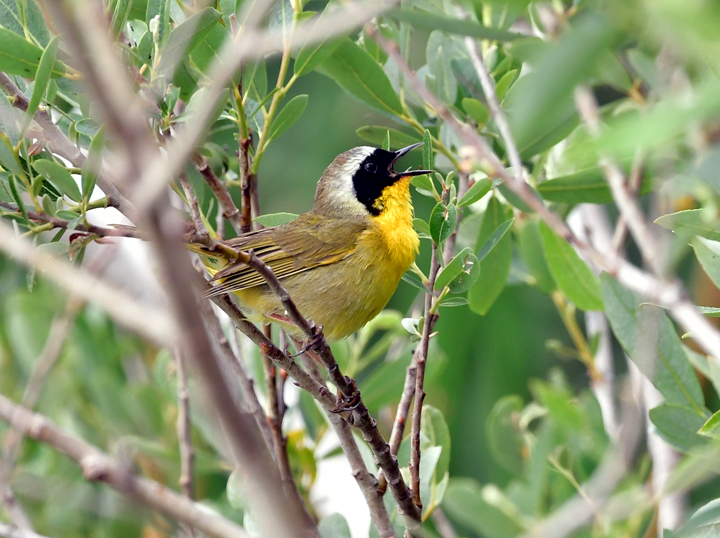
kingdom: Animalia
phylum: Chordata
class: Aves
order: Passeriformes
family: Parulidae
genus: Geothlypis
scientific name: Geothlypis trichas
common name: Common yellowthroat
